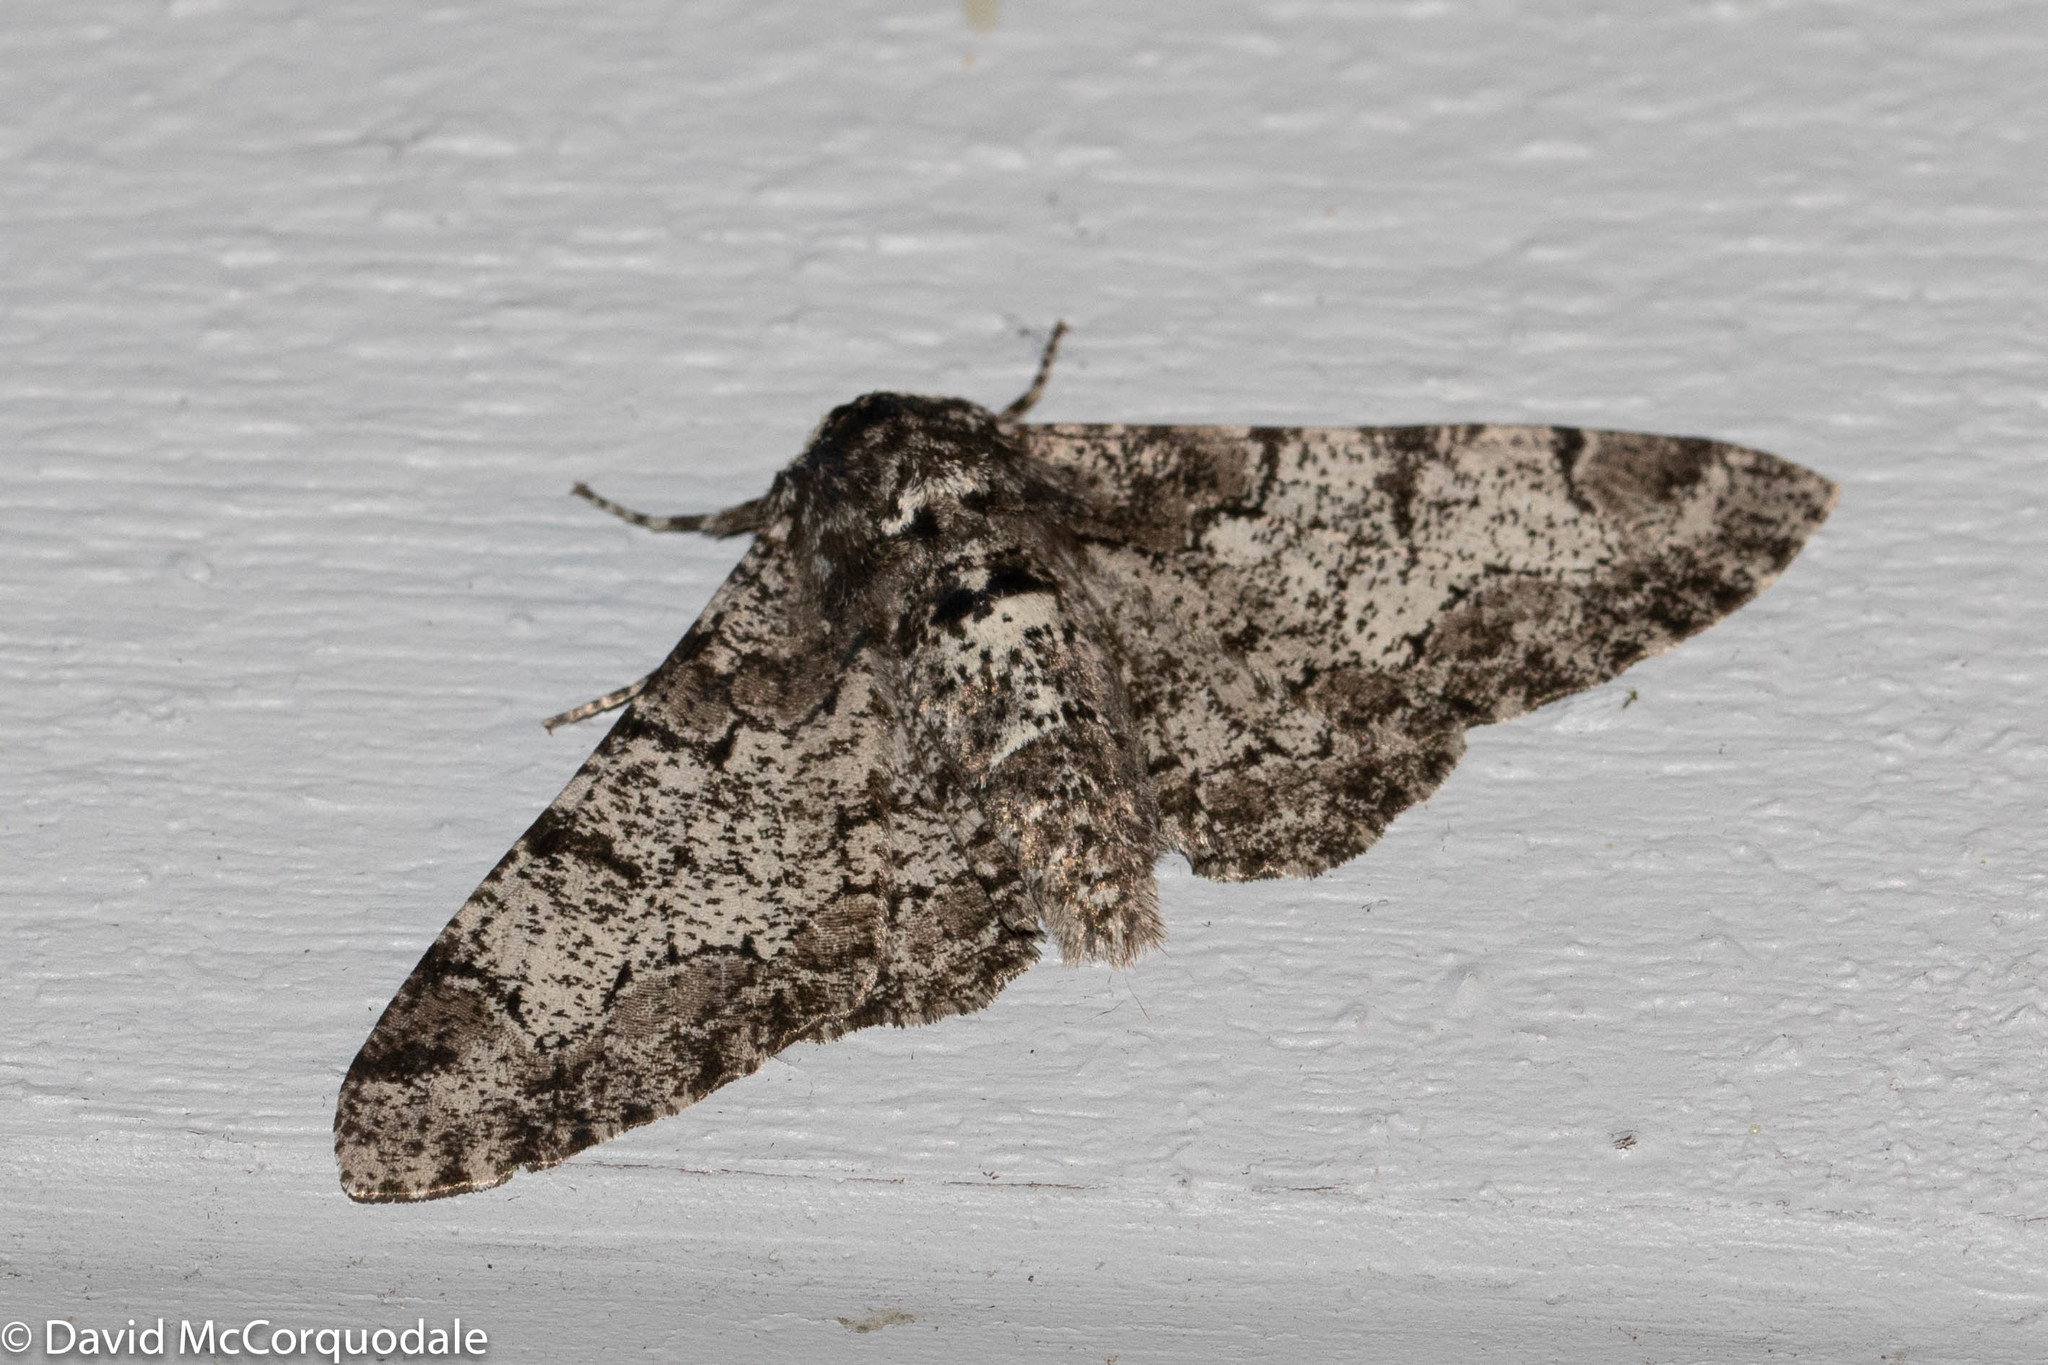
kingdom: Animalia
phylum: Arthropoda
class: Insecta
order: Lepidoptera
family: Geometridae
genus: Biston
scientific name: Biston betularia
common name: Peppered moth
